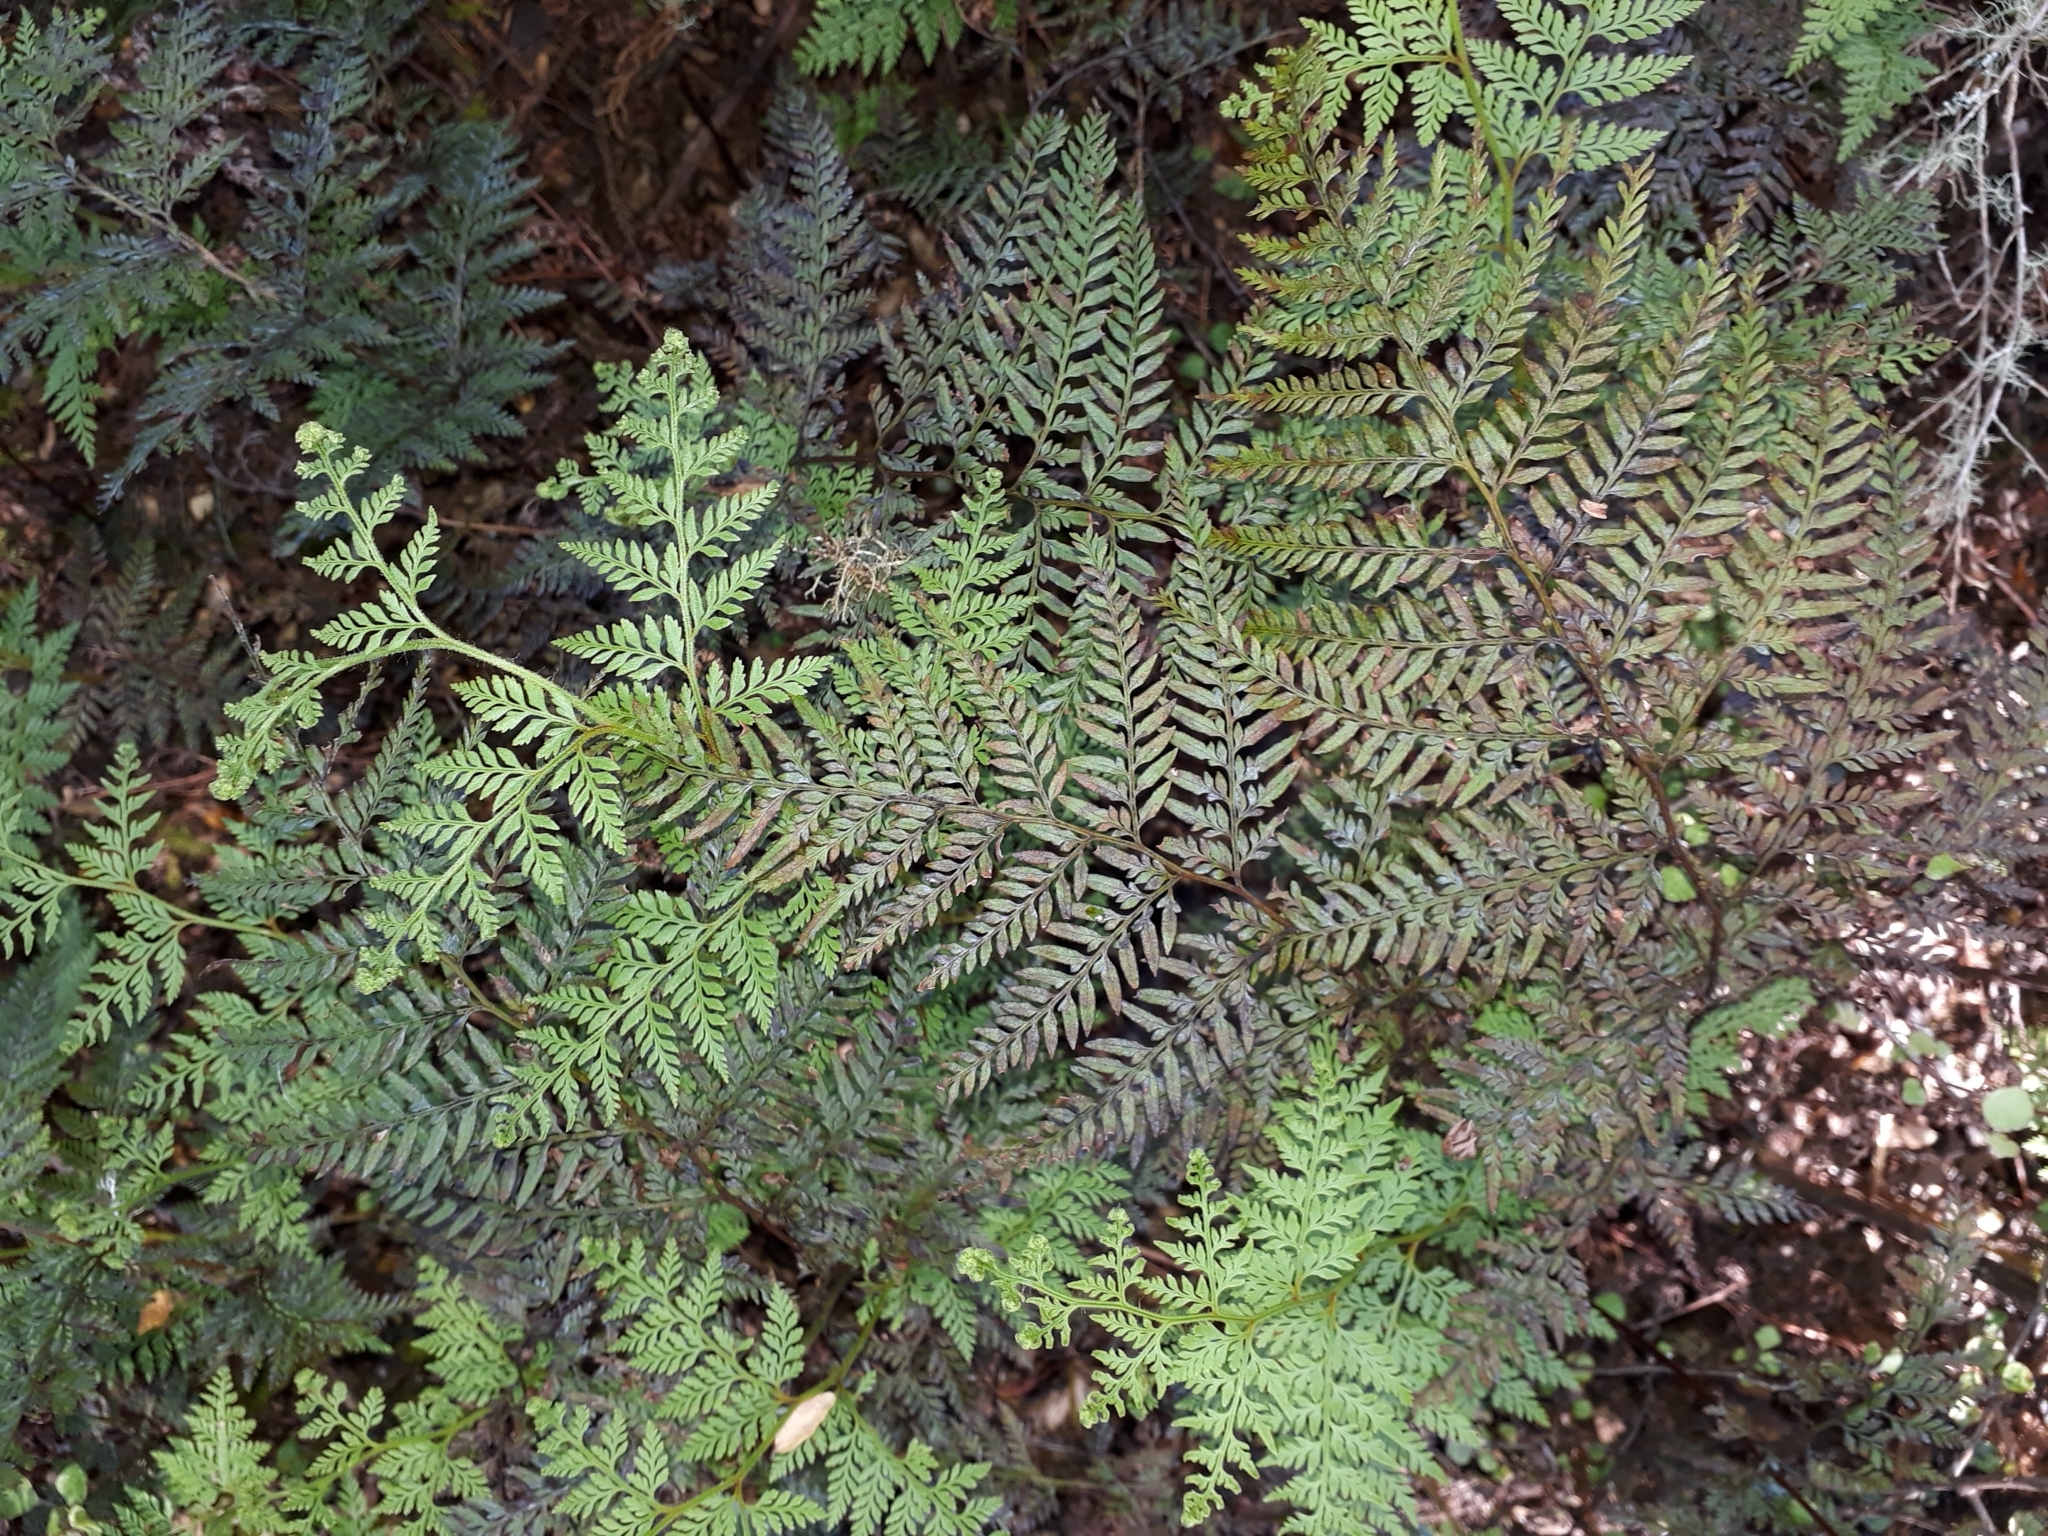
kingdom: Plantae
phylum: Tracheophyta
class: Polypodiopsida
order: Polypodiales
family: Dennstaedtiaceae
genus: Paesia
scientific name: Paesia scaberula
